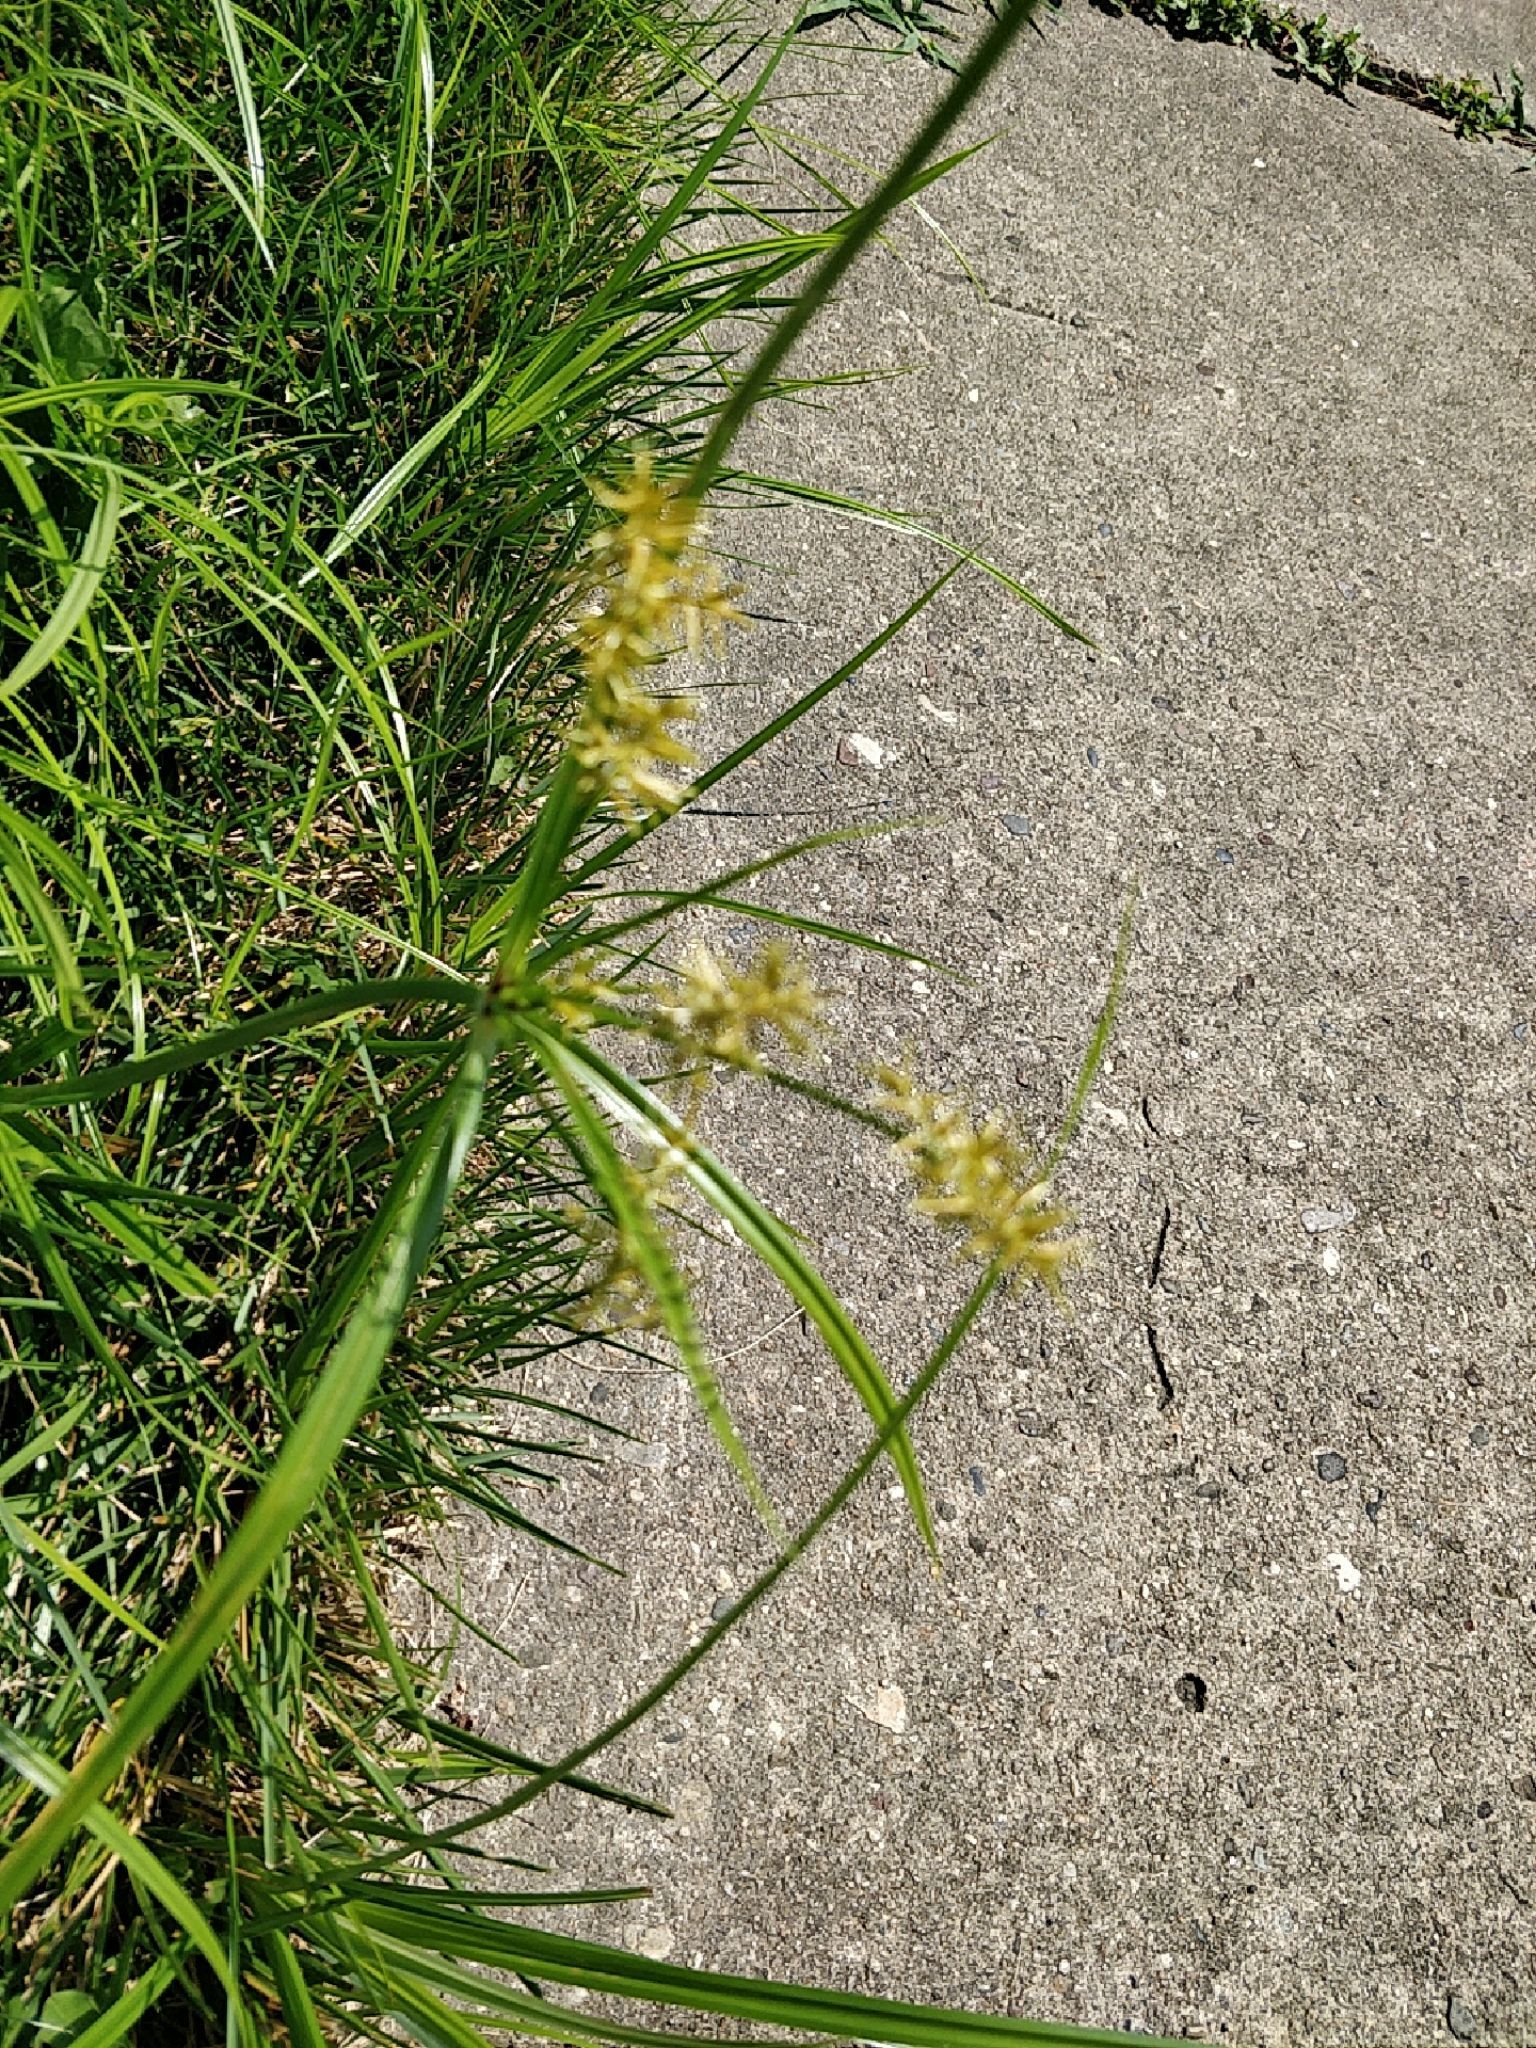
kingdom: Plantae
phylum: Tracheophyta
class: Liliopsida
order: Poales
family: Cyperaceae
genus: Cyperus
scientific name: Cyperus esculentus
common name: Yellow nutsedge
